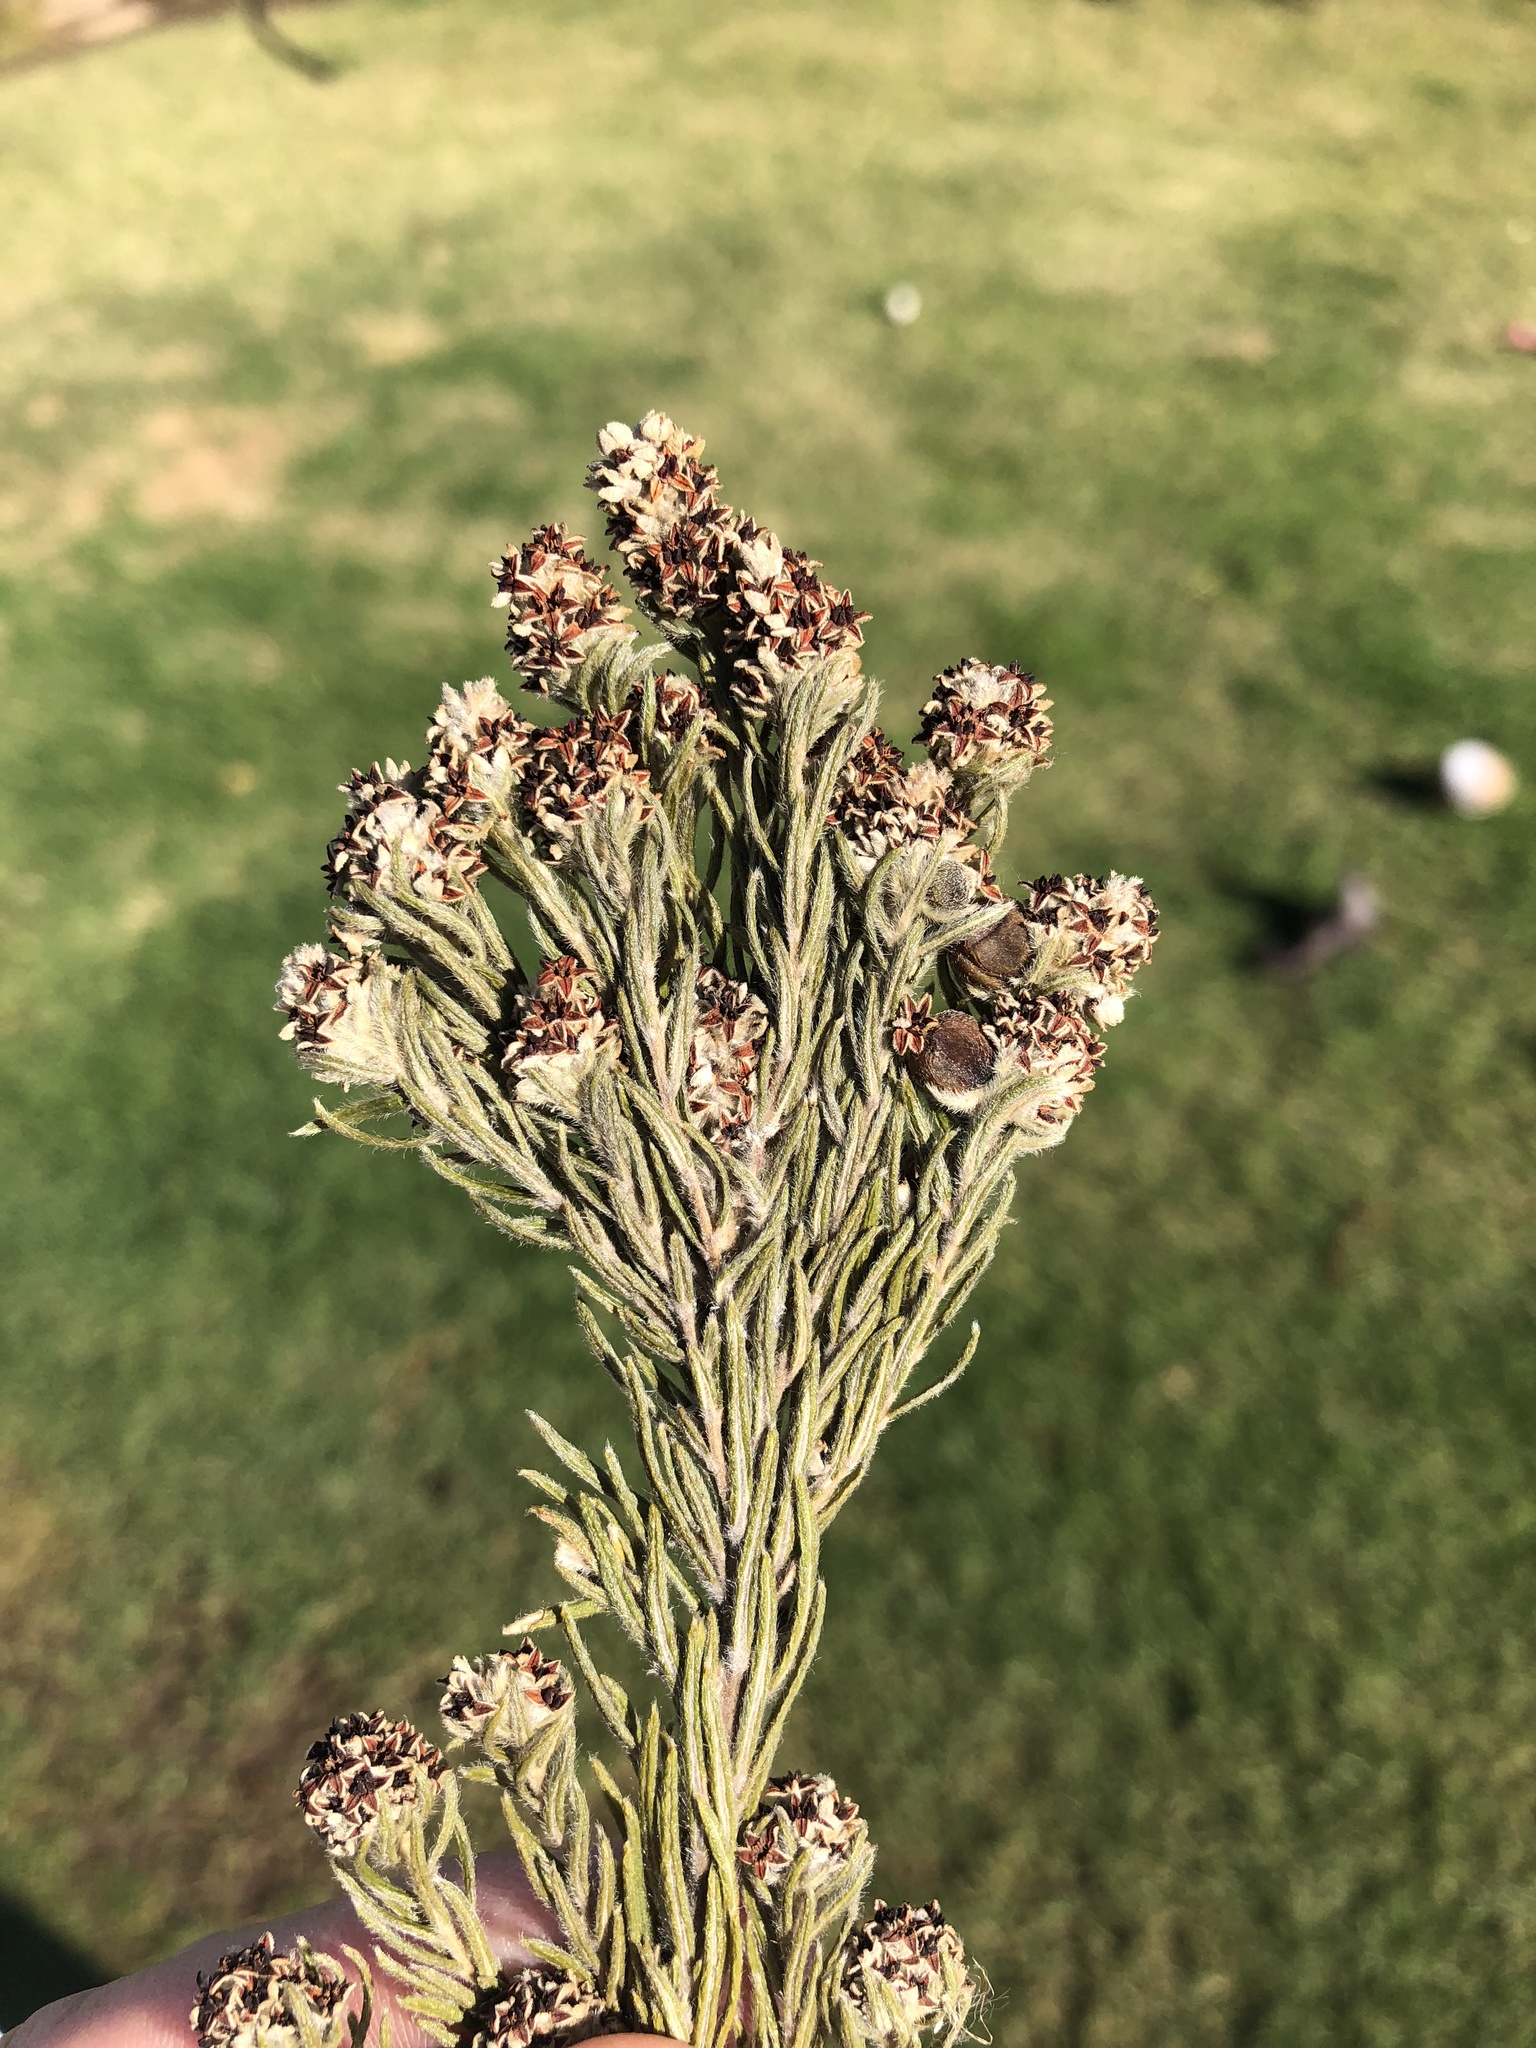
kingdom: Plantae
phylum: Tracheophyta
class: Magnoliopsida
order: Rosales
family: Rhamnaceae
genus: Phylica
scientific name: Phylica imberbis
